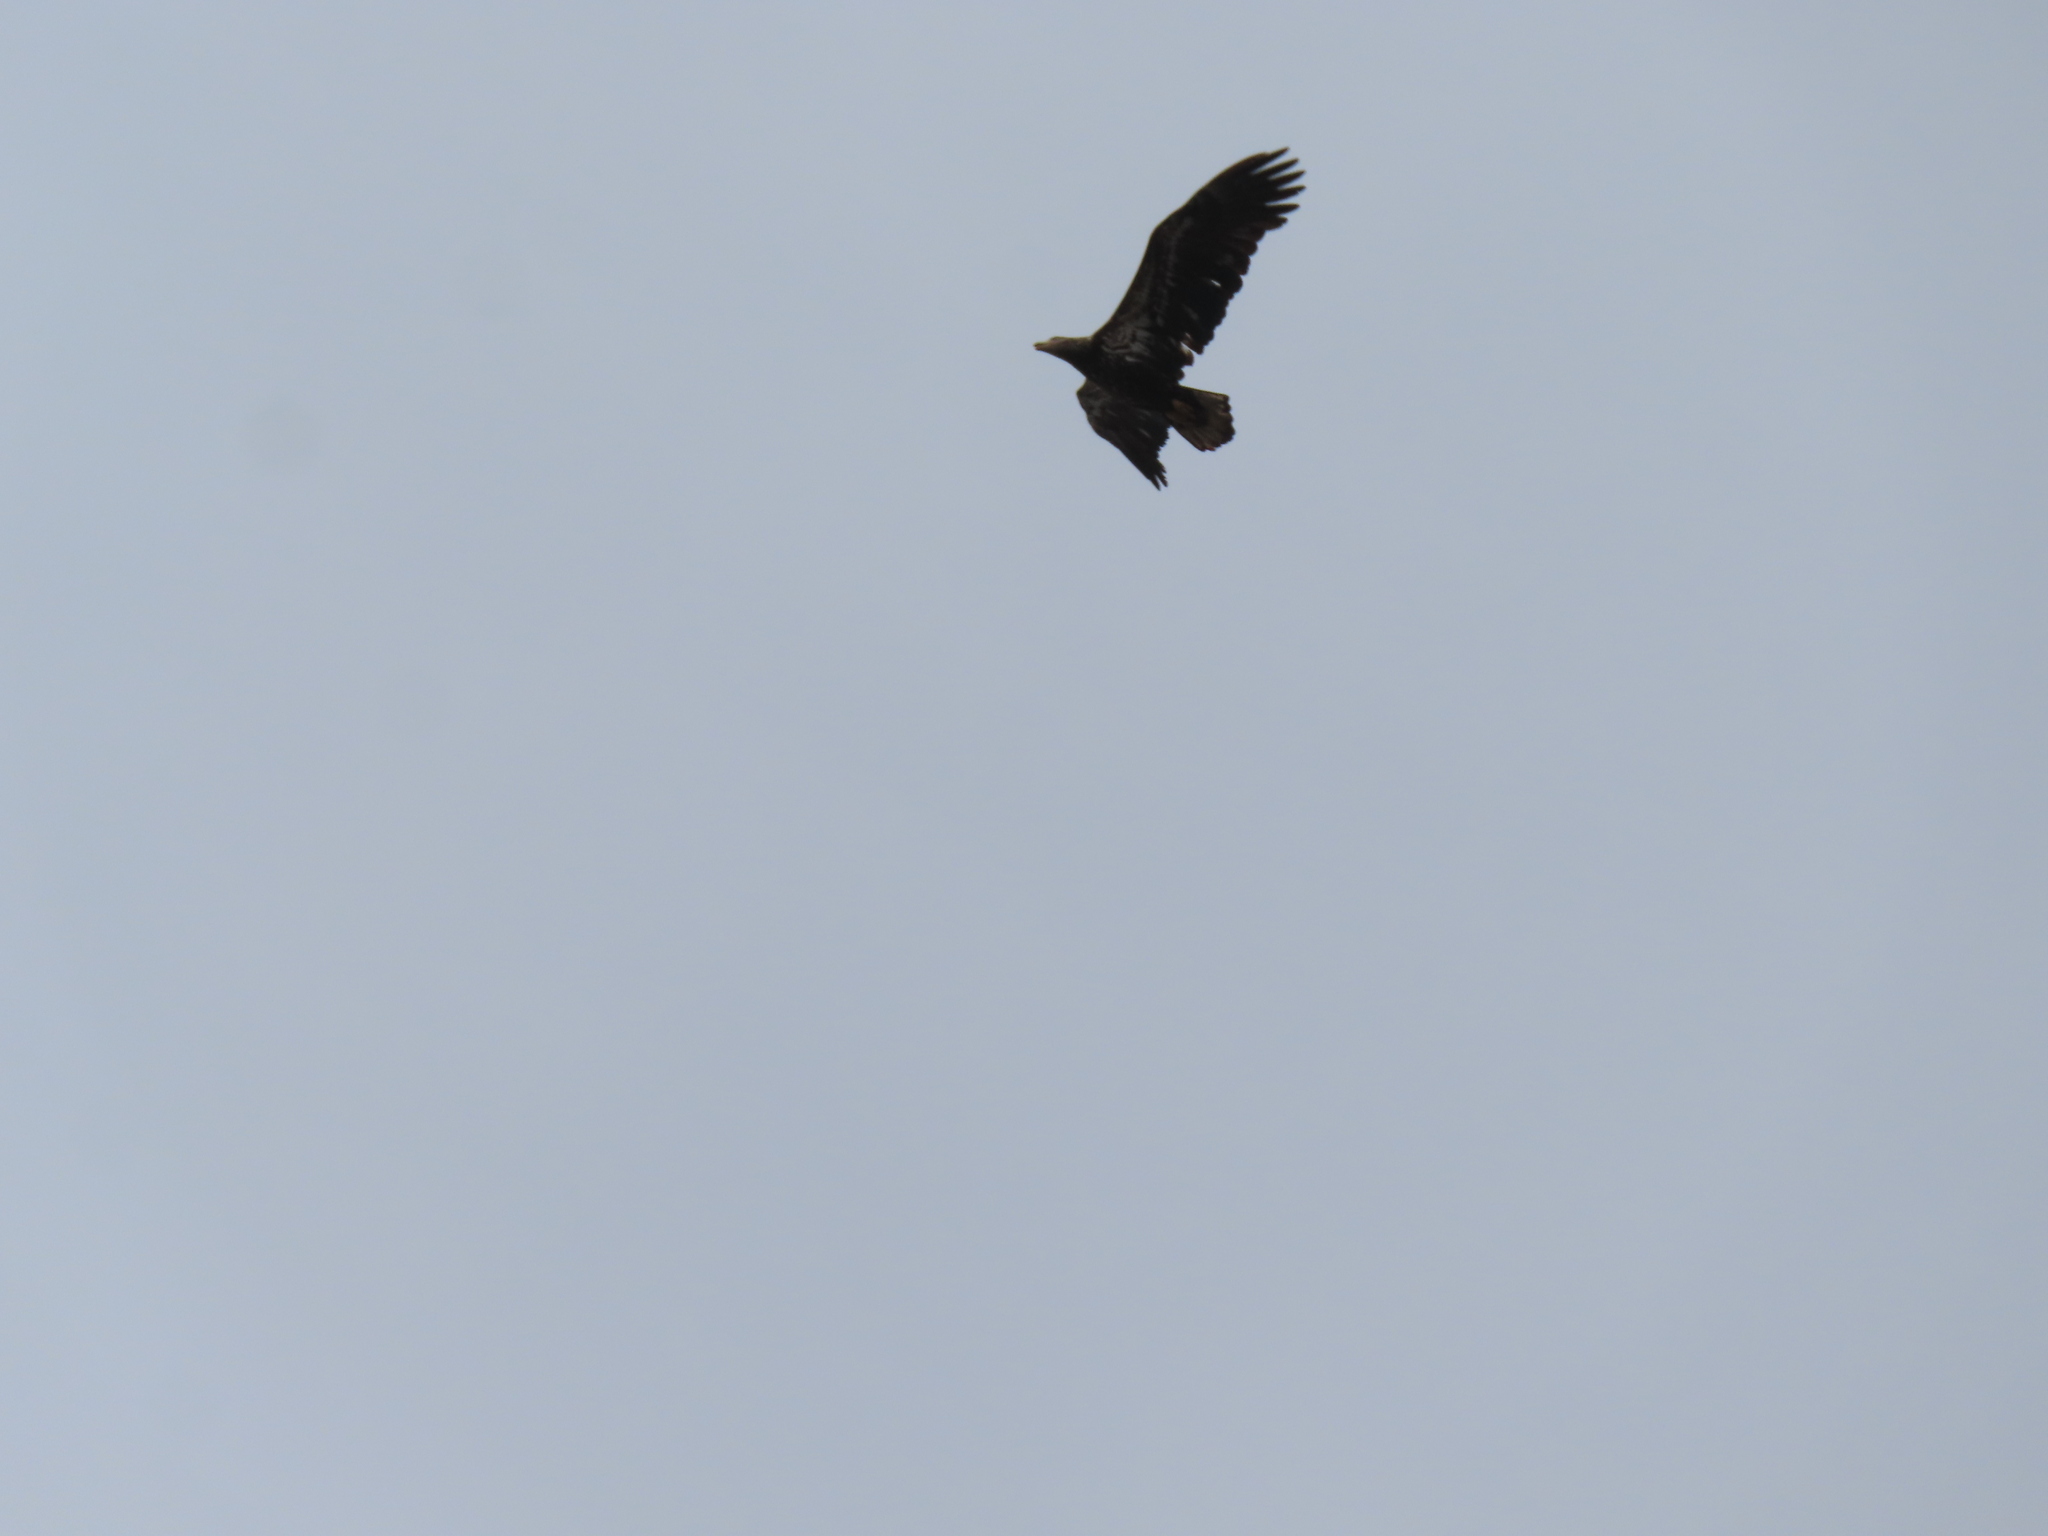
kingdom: Animalia
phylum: Chordata
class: Aves
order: Accipitriformes
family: Accipitridae
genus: Haliaeetus
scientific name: Haliaeetus leucocephalus
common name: Bald eagle
